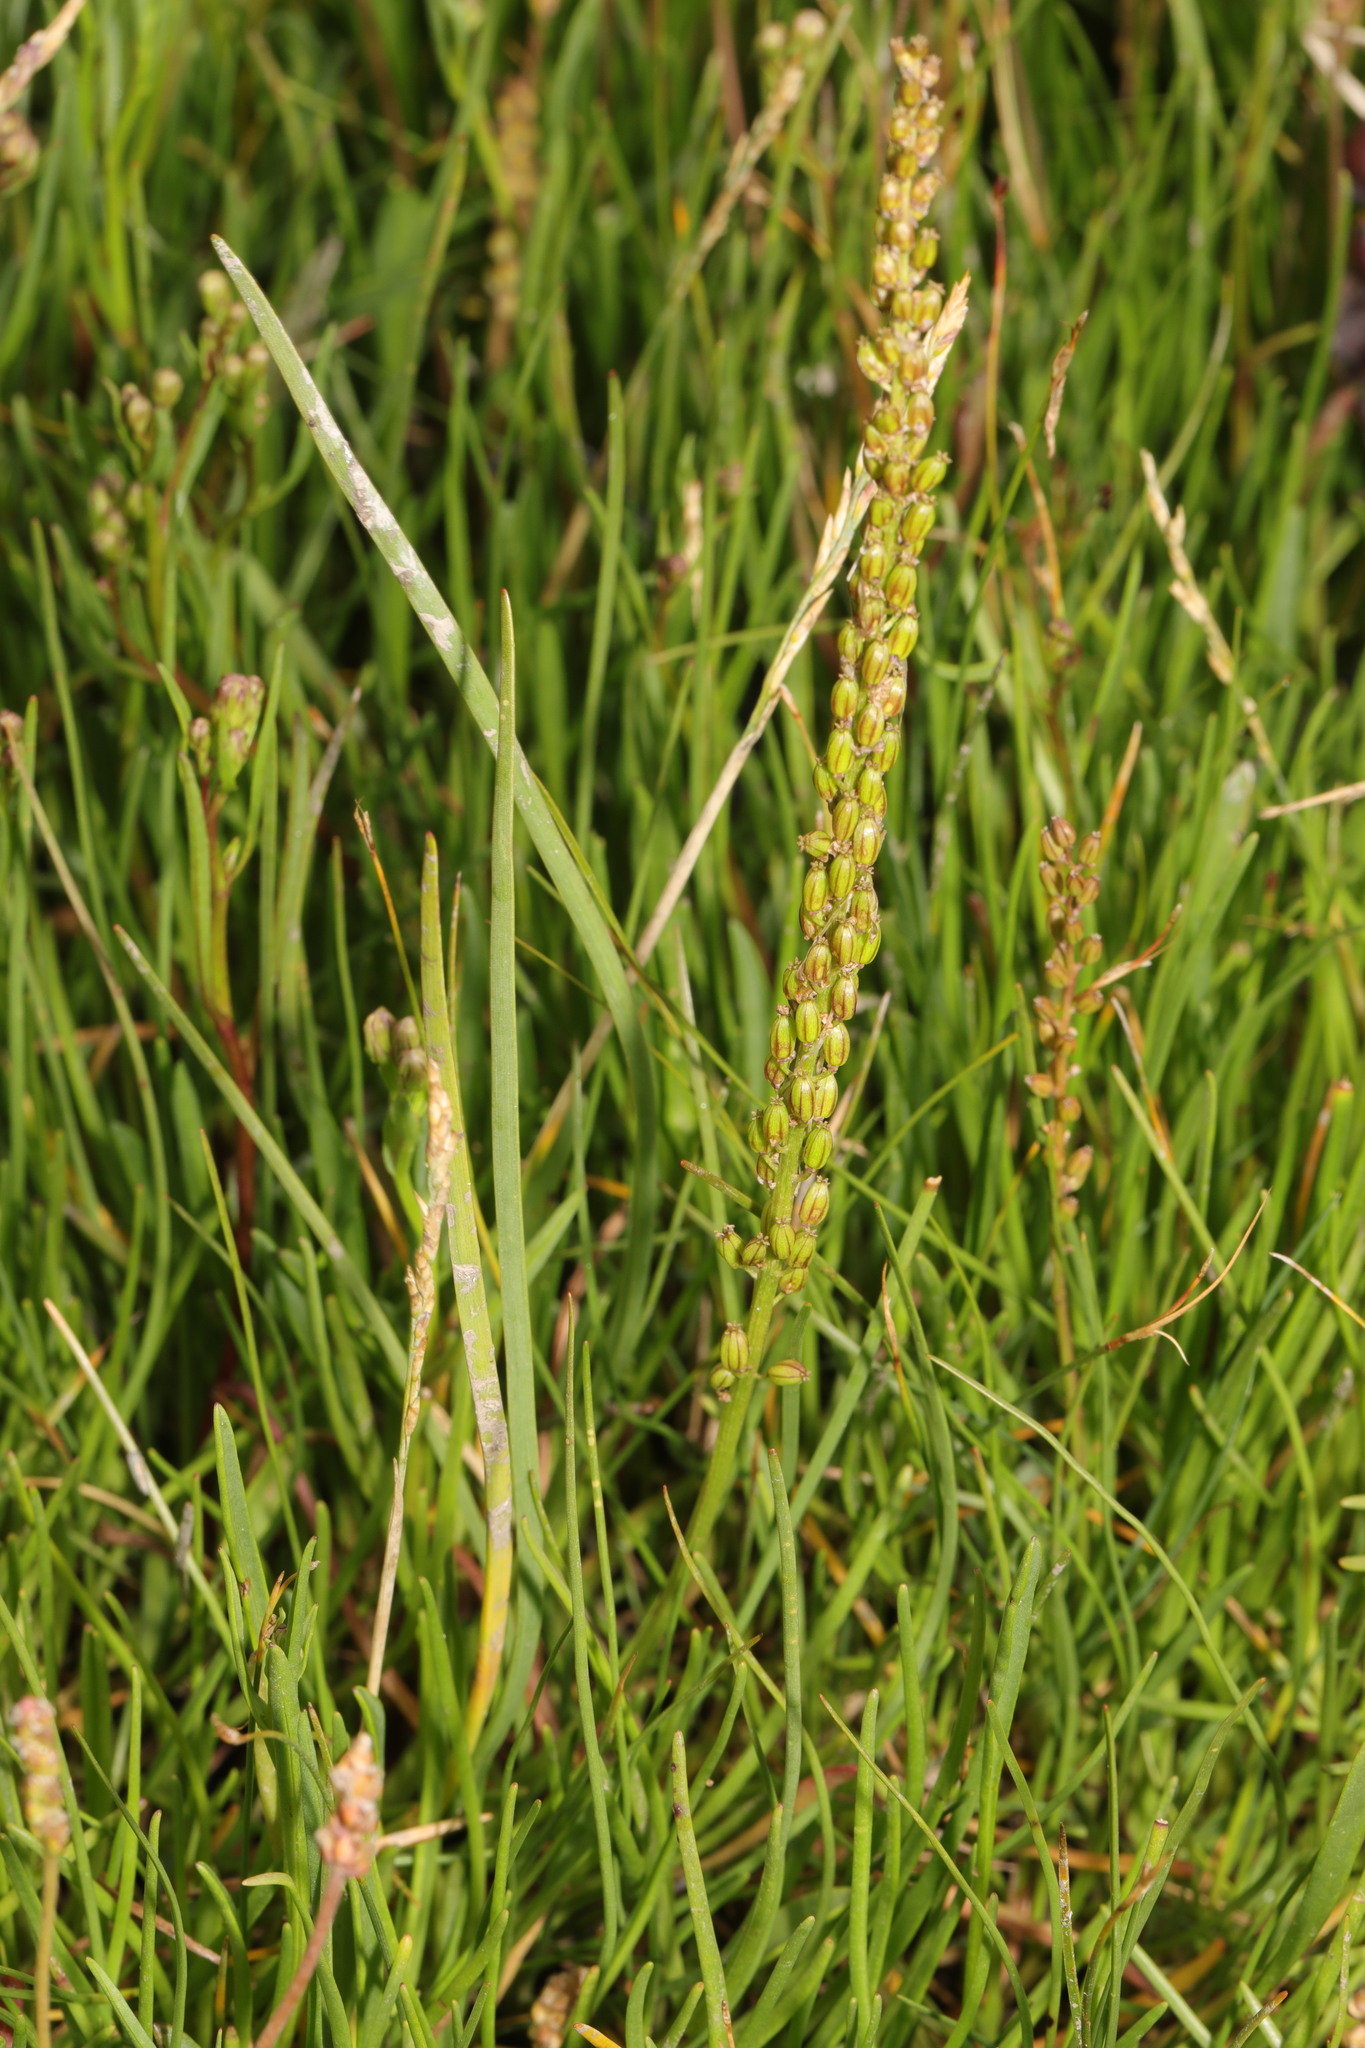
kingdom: Plantae
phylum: Tracheophyta
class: Liliopsida
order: Alismatales
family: Juncaginaceae
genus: Triglochin
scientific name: Triglochin maritima
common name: Sea arrowgrass
